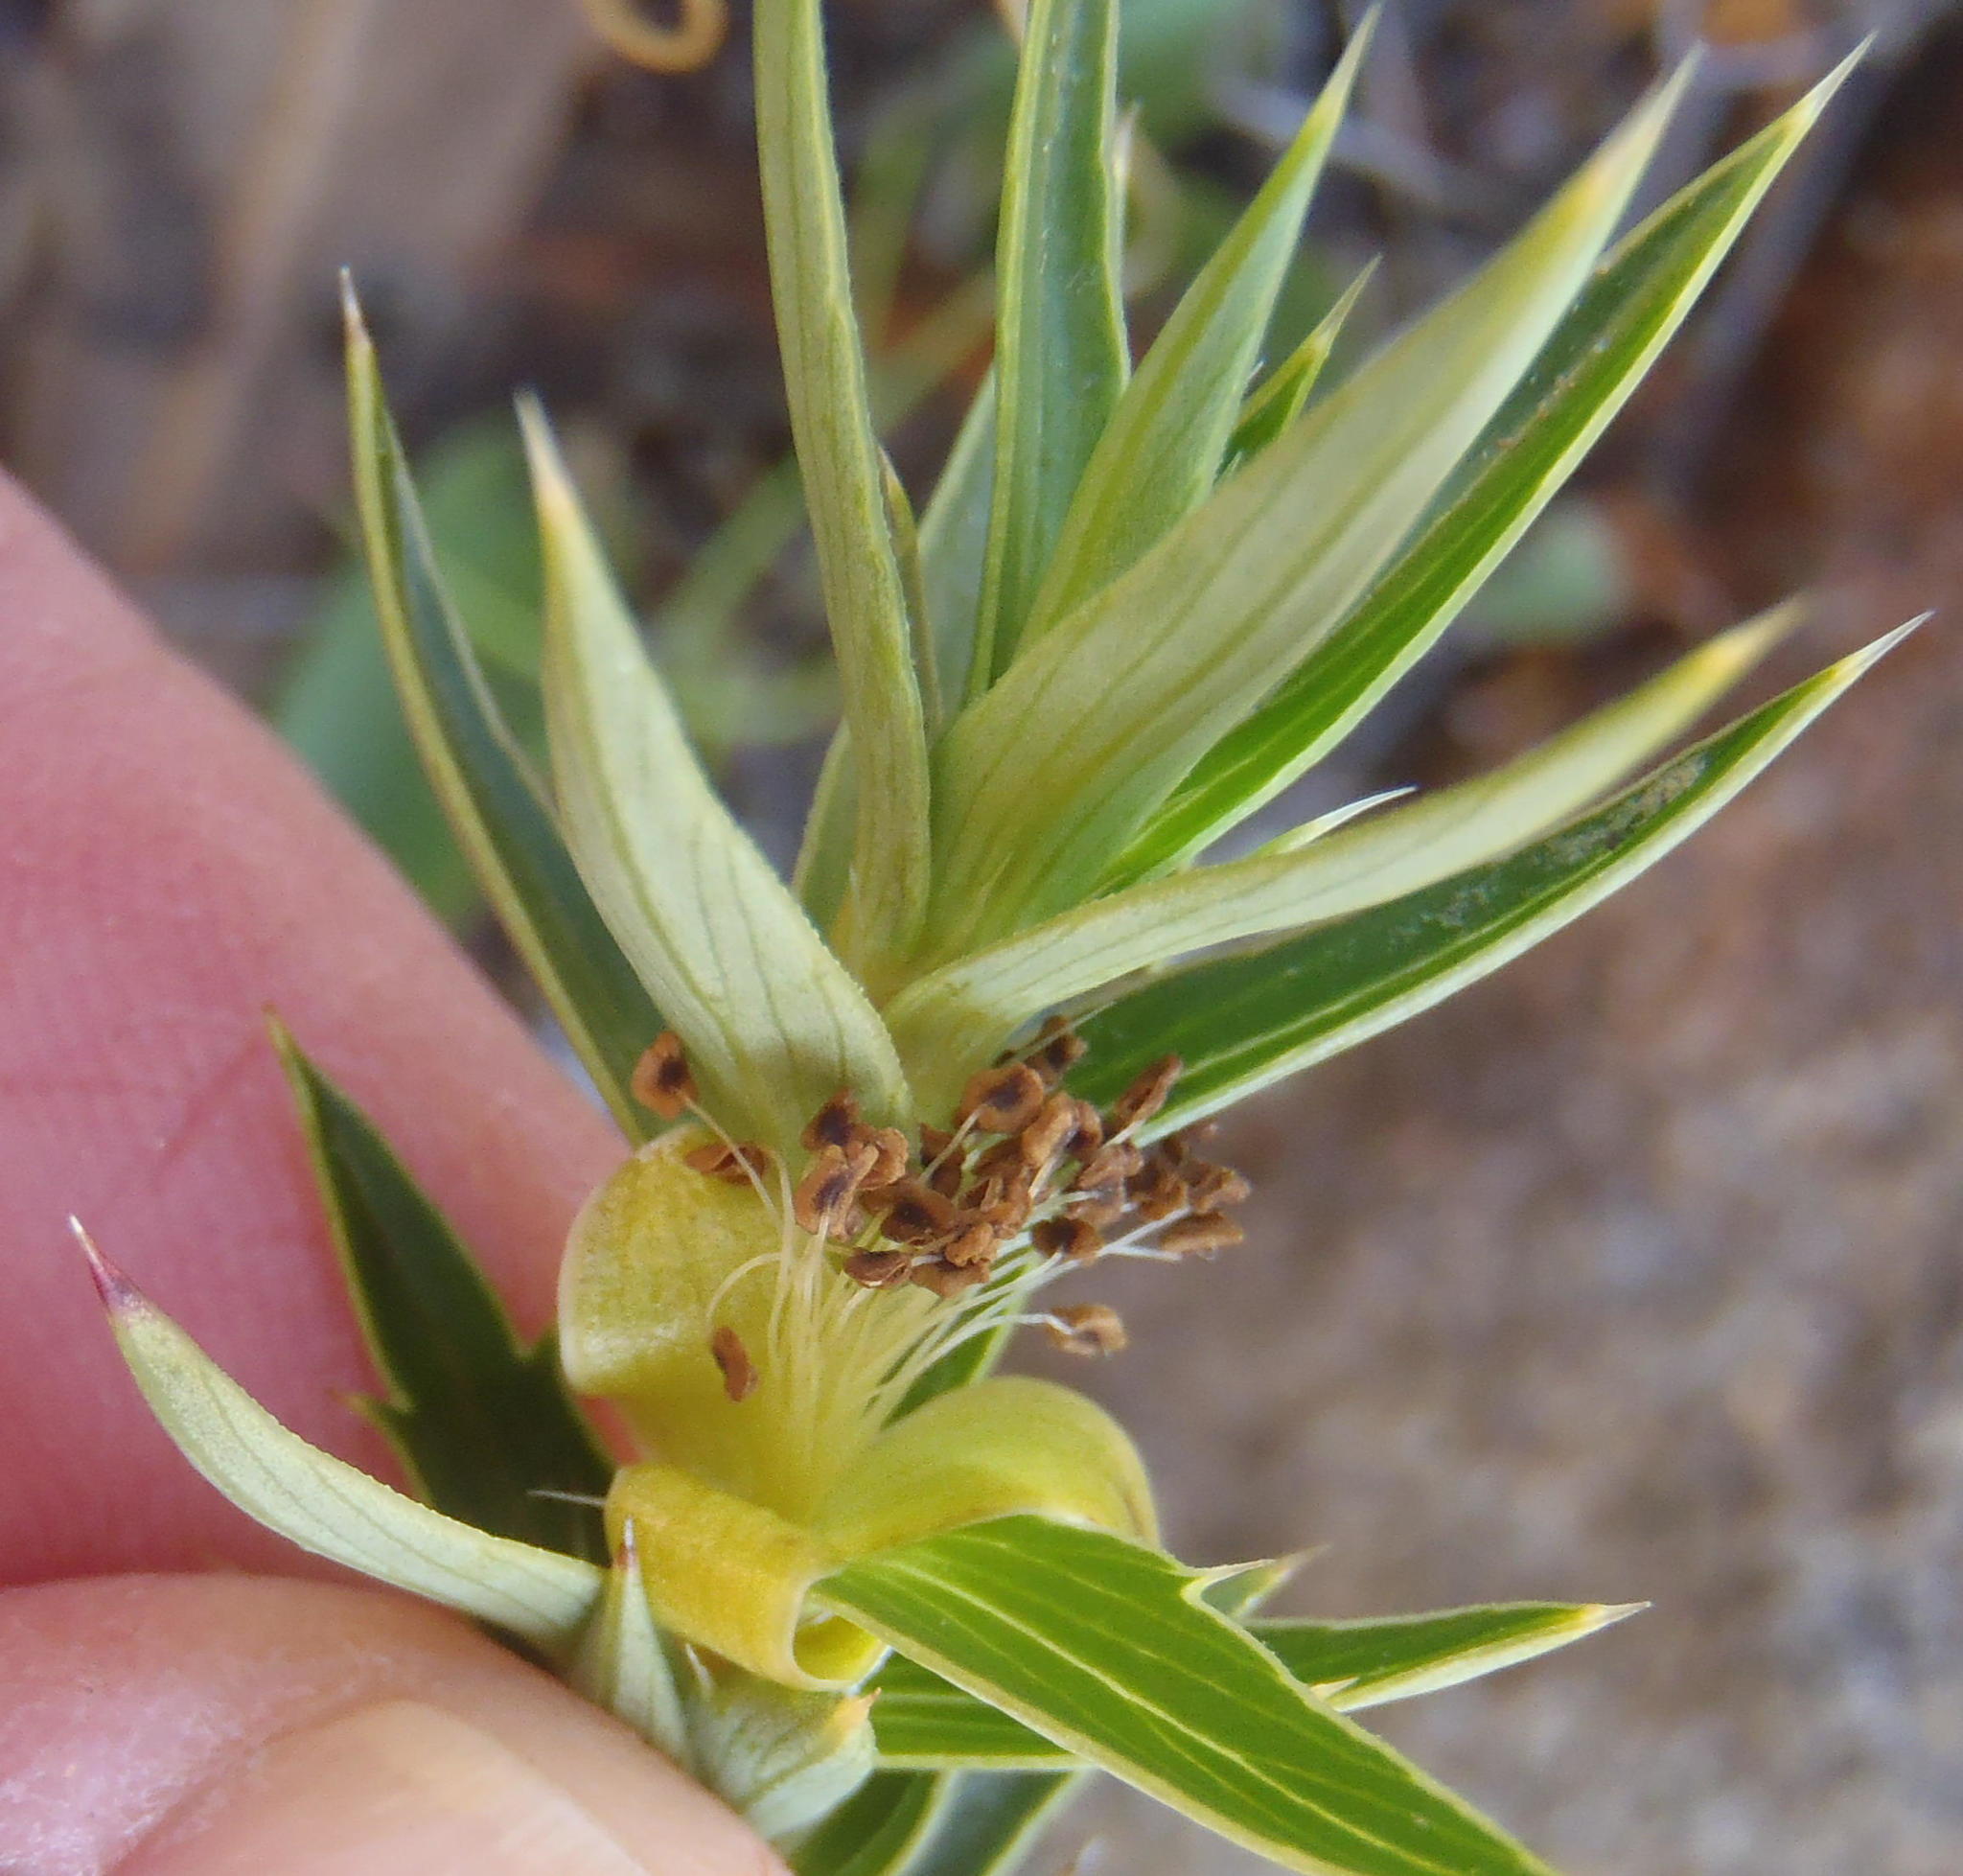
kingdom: Plantae
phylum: Tracheophyta
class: Magnoliopsida
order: Rosales
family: Rosaceae
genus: Cliffortia
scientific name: Cliffortia ilicifolia
